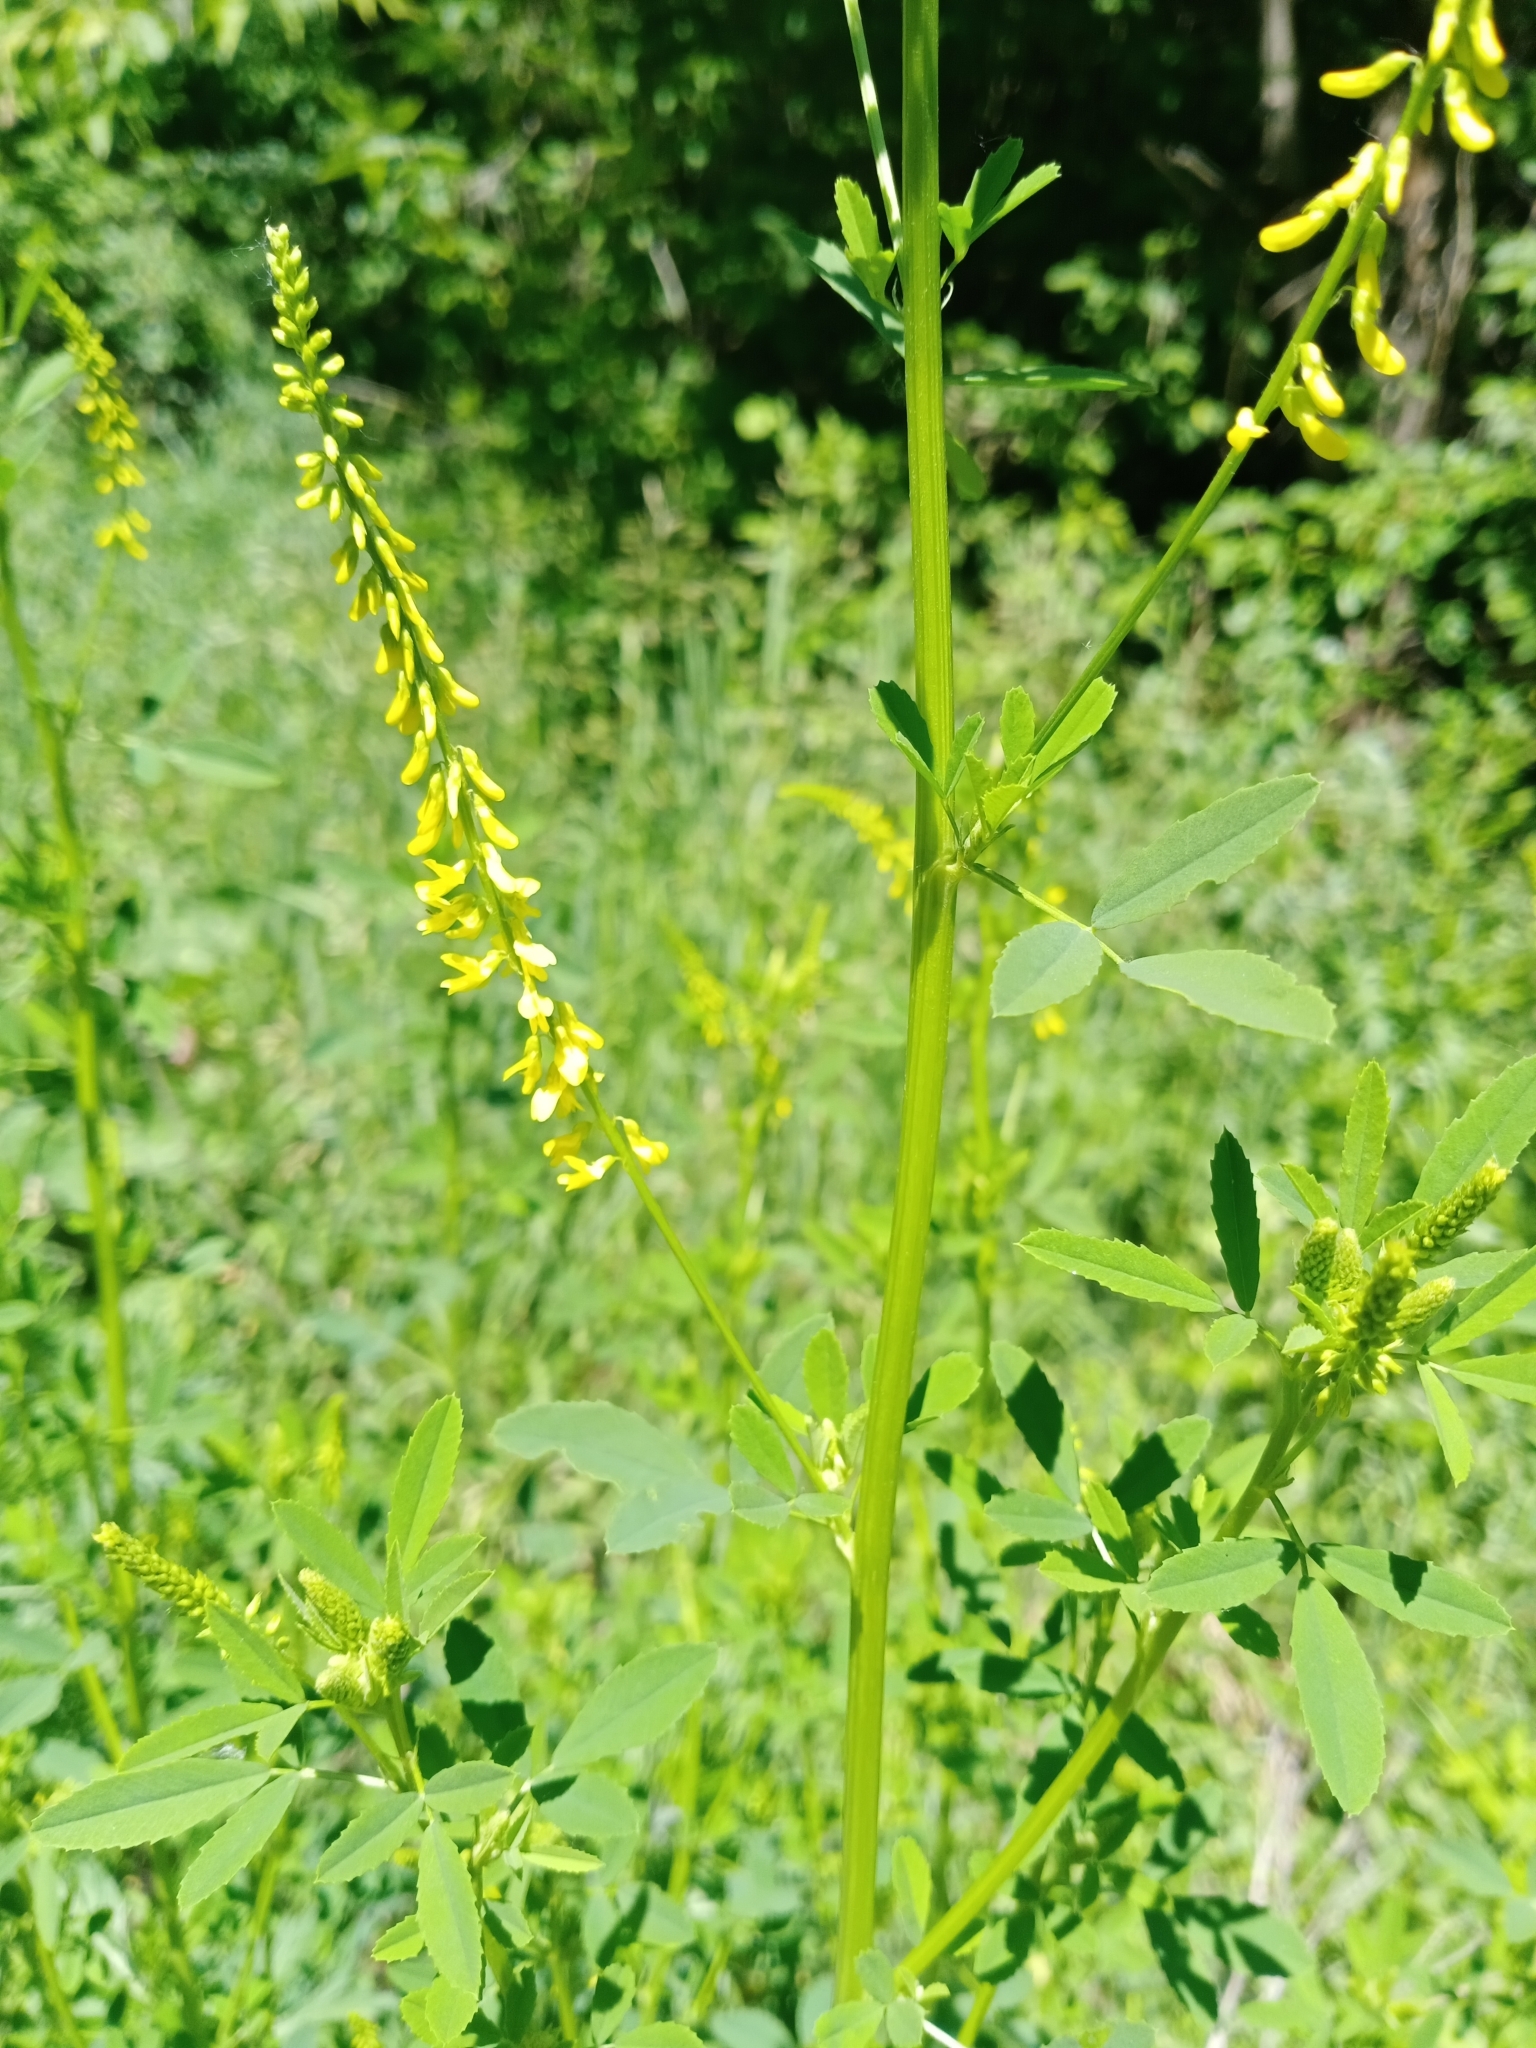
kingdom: Plantae
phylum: Tracheophyta
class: Magnoliopsida
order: Fabales
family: Fabaceae
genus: Melilotus
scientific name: Melilotus officinalis
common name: Sweetclover
